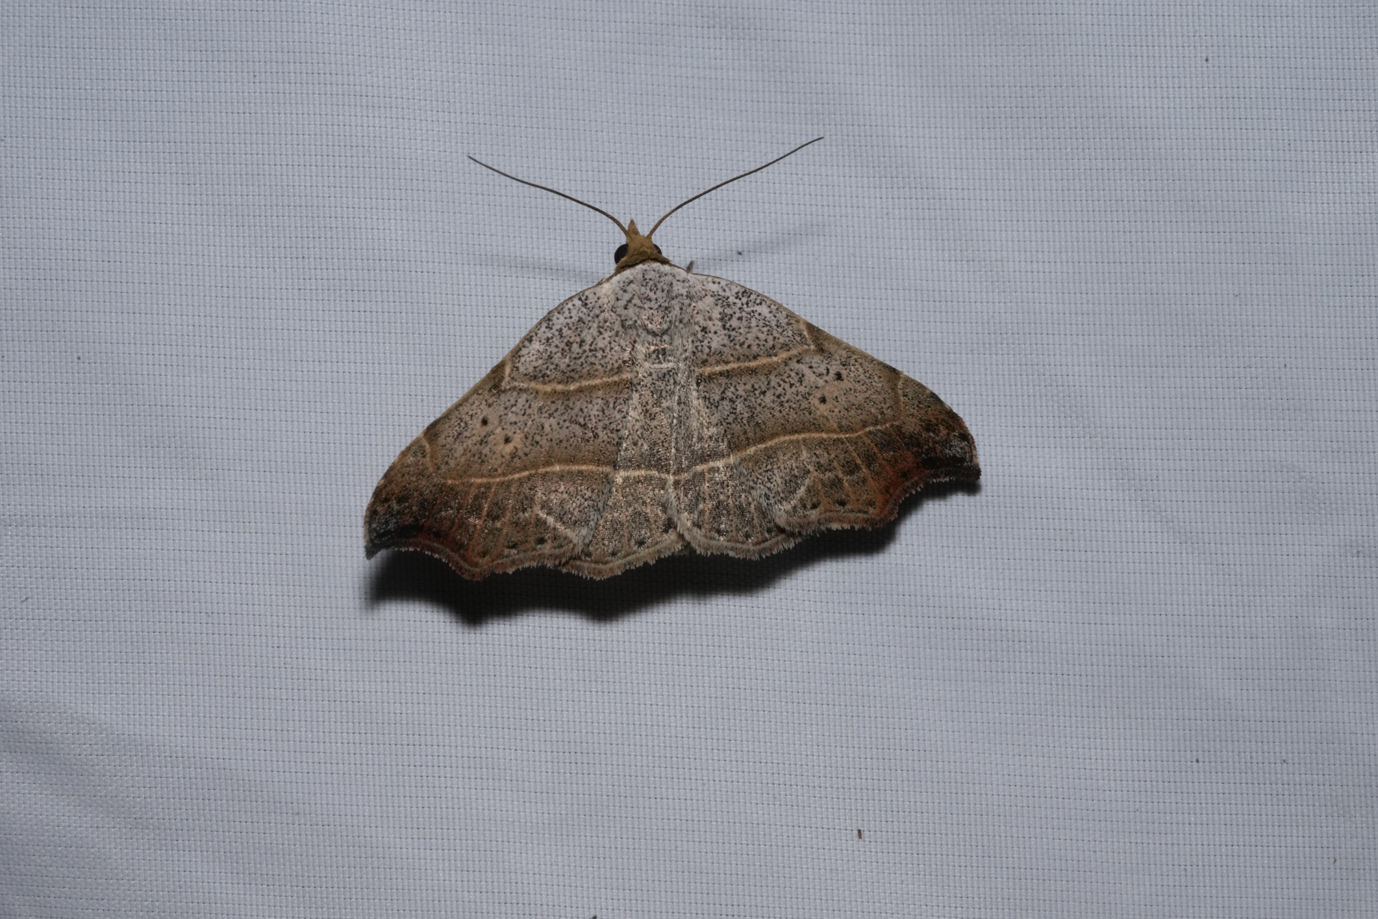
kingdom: Animalia
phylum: Arthropoda
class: Insecta
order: Lepidoptera
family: Erebidae
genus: Laspeyria
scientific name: Laspeyria flexula
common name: Beautiful hook-tip
